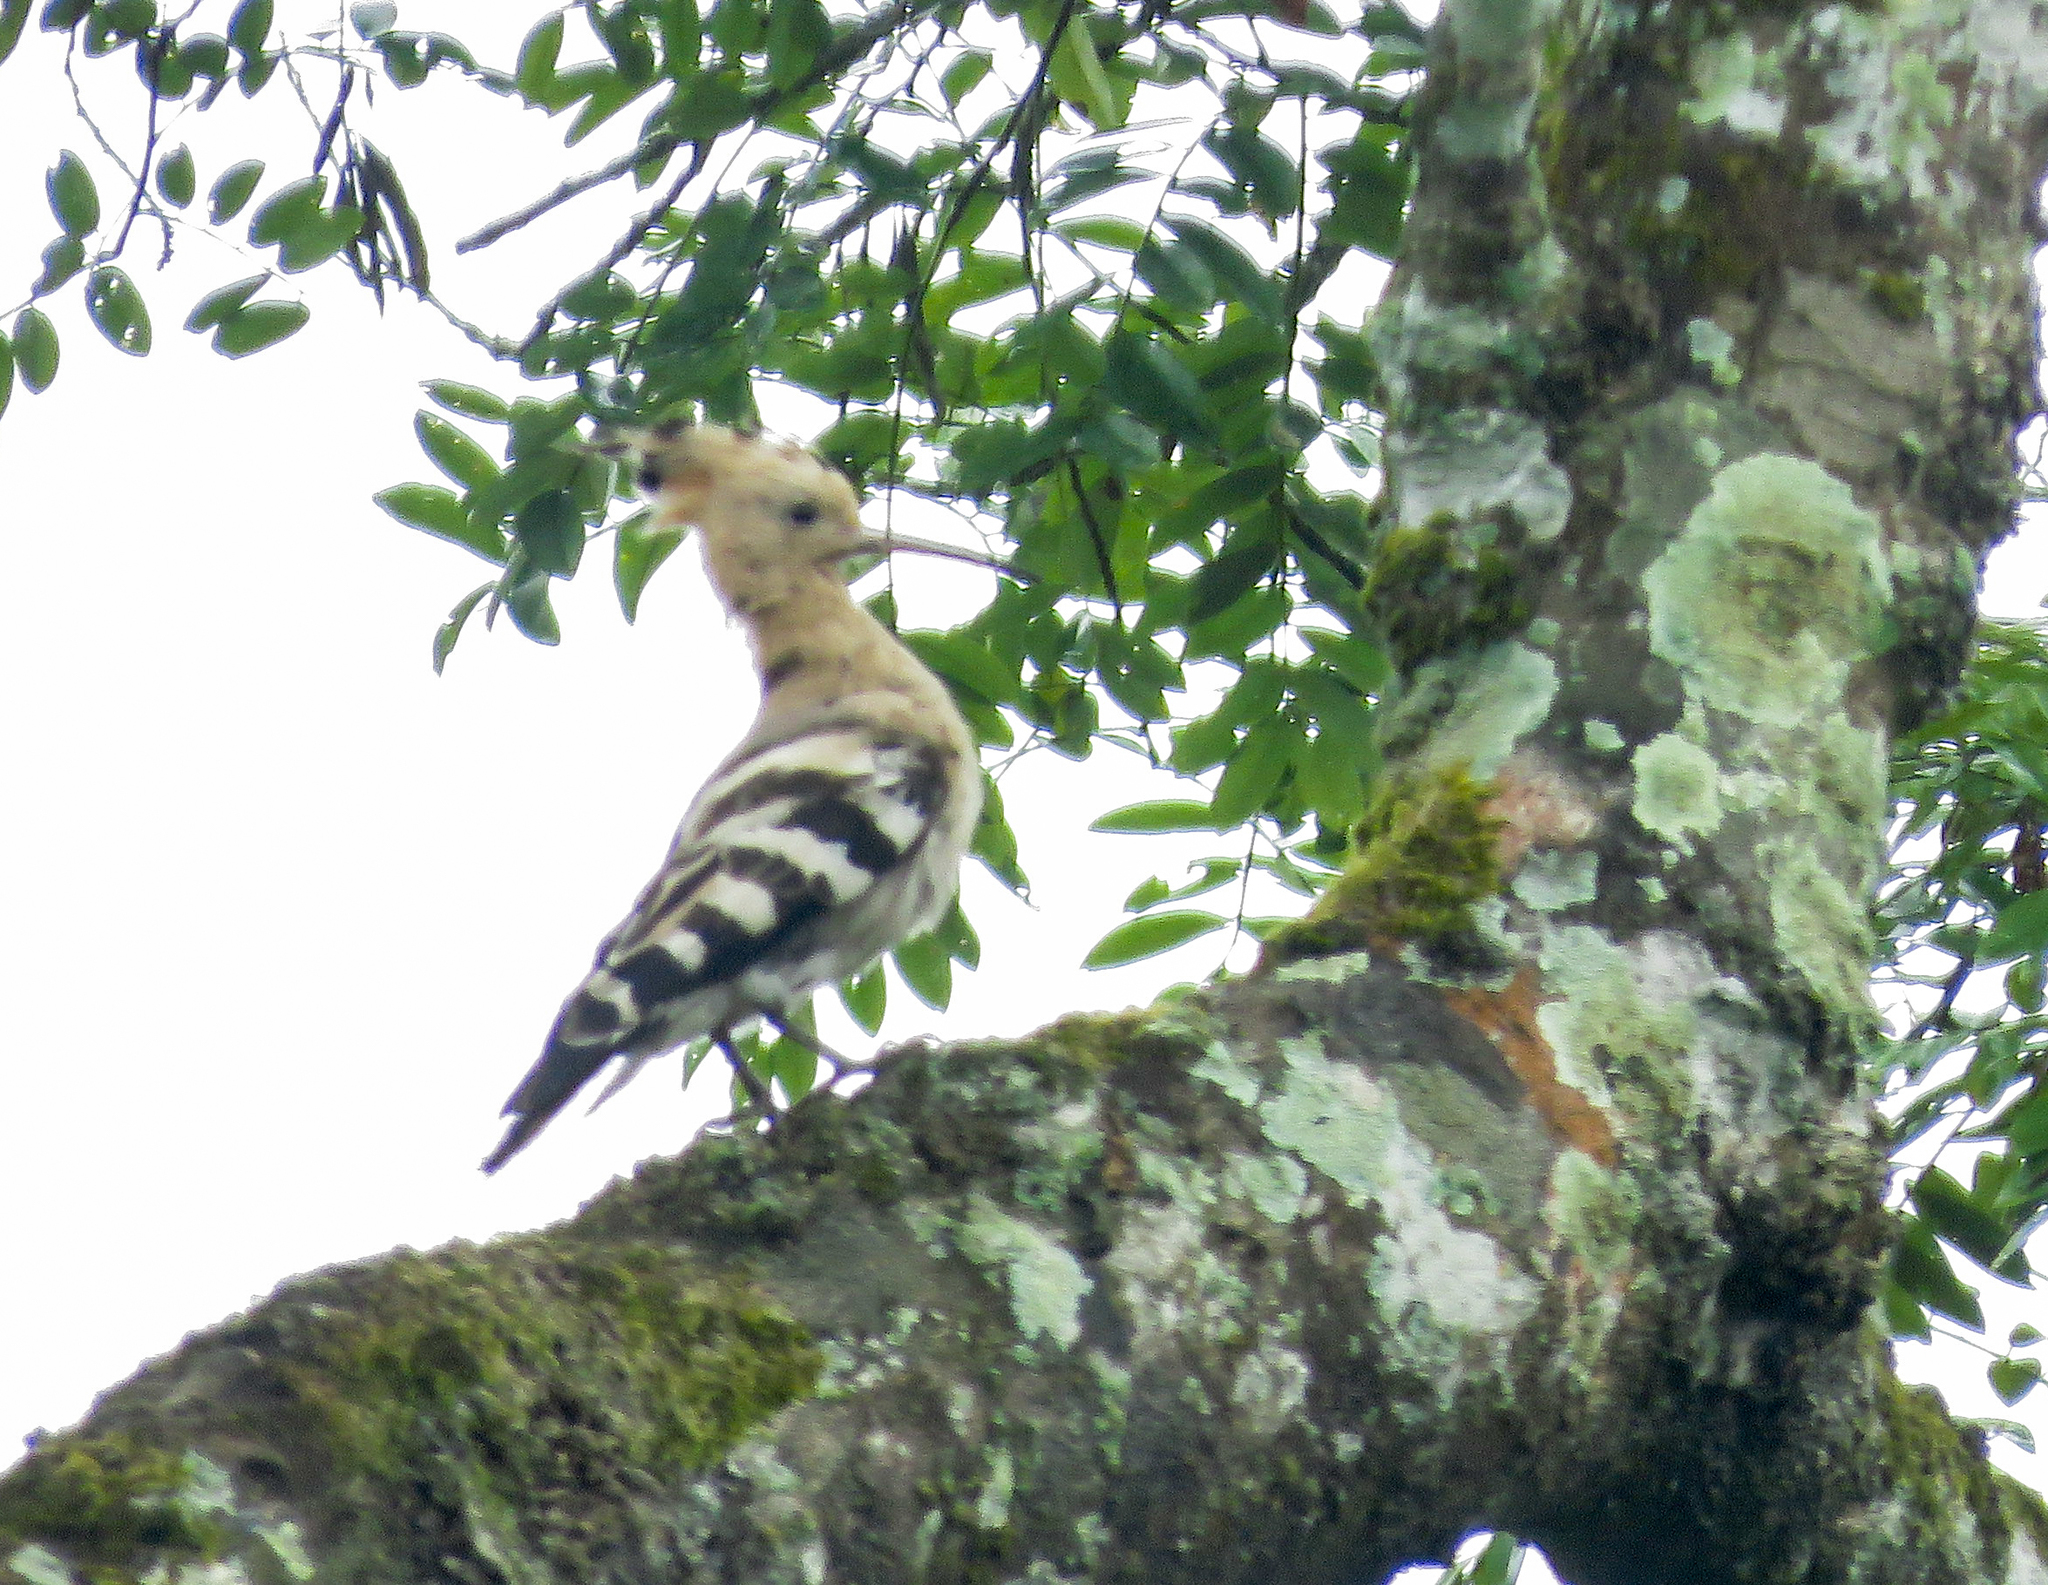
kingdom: Animalia
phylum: Chordata
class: Aves
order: Bucerotiformes
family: Upupidae
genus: Upupa
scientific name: Upupa epops
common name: Eurasian hoopoe
